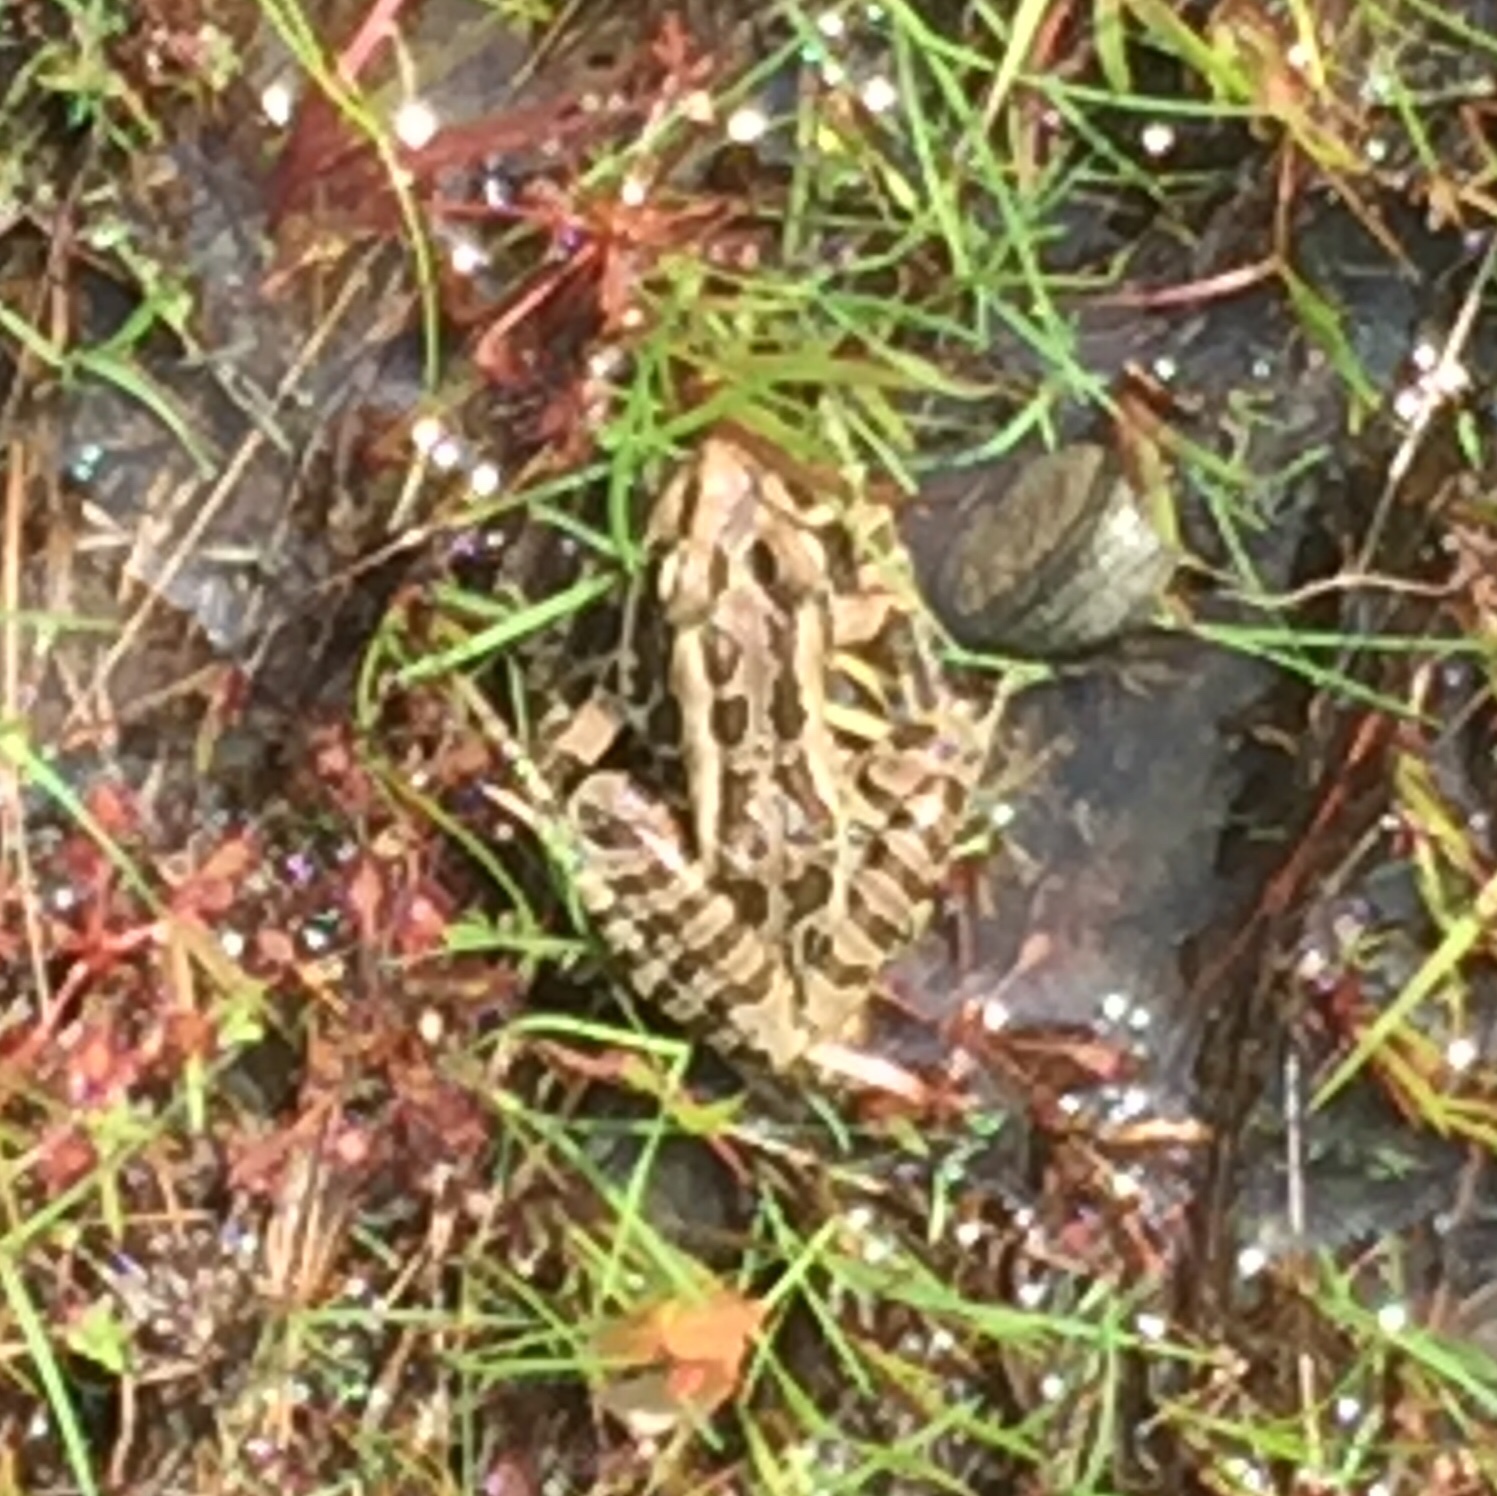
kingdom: Animalia
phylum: Chordata
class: Amphibia
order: Anura
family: Ranidae
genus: Lithobates
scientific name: Lithobates palustris
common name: Pickerel frog
